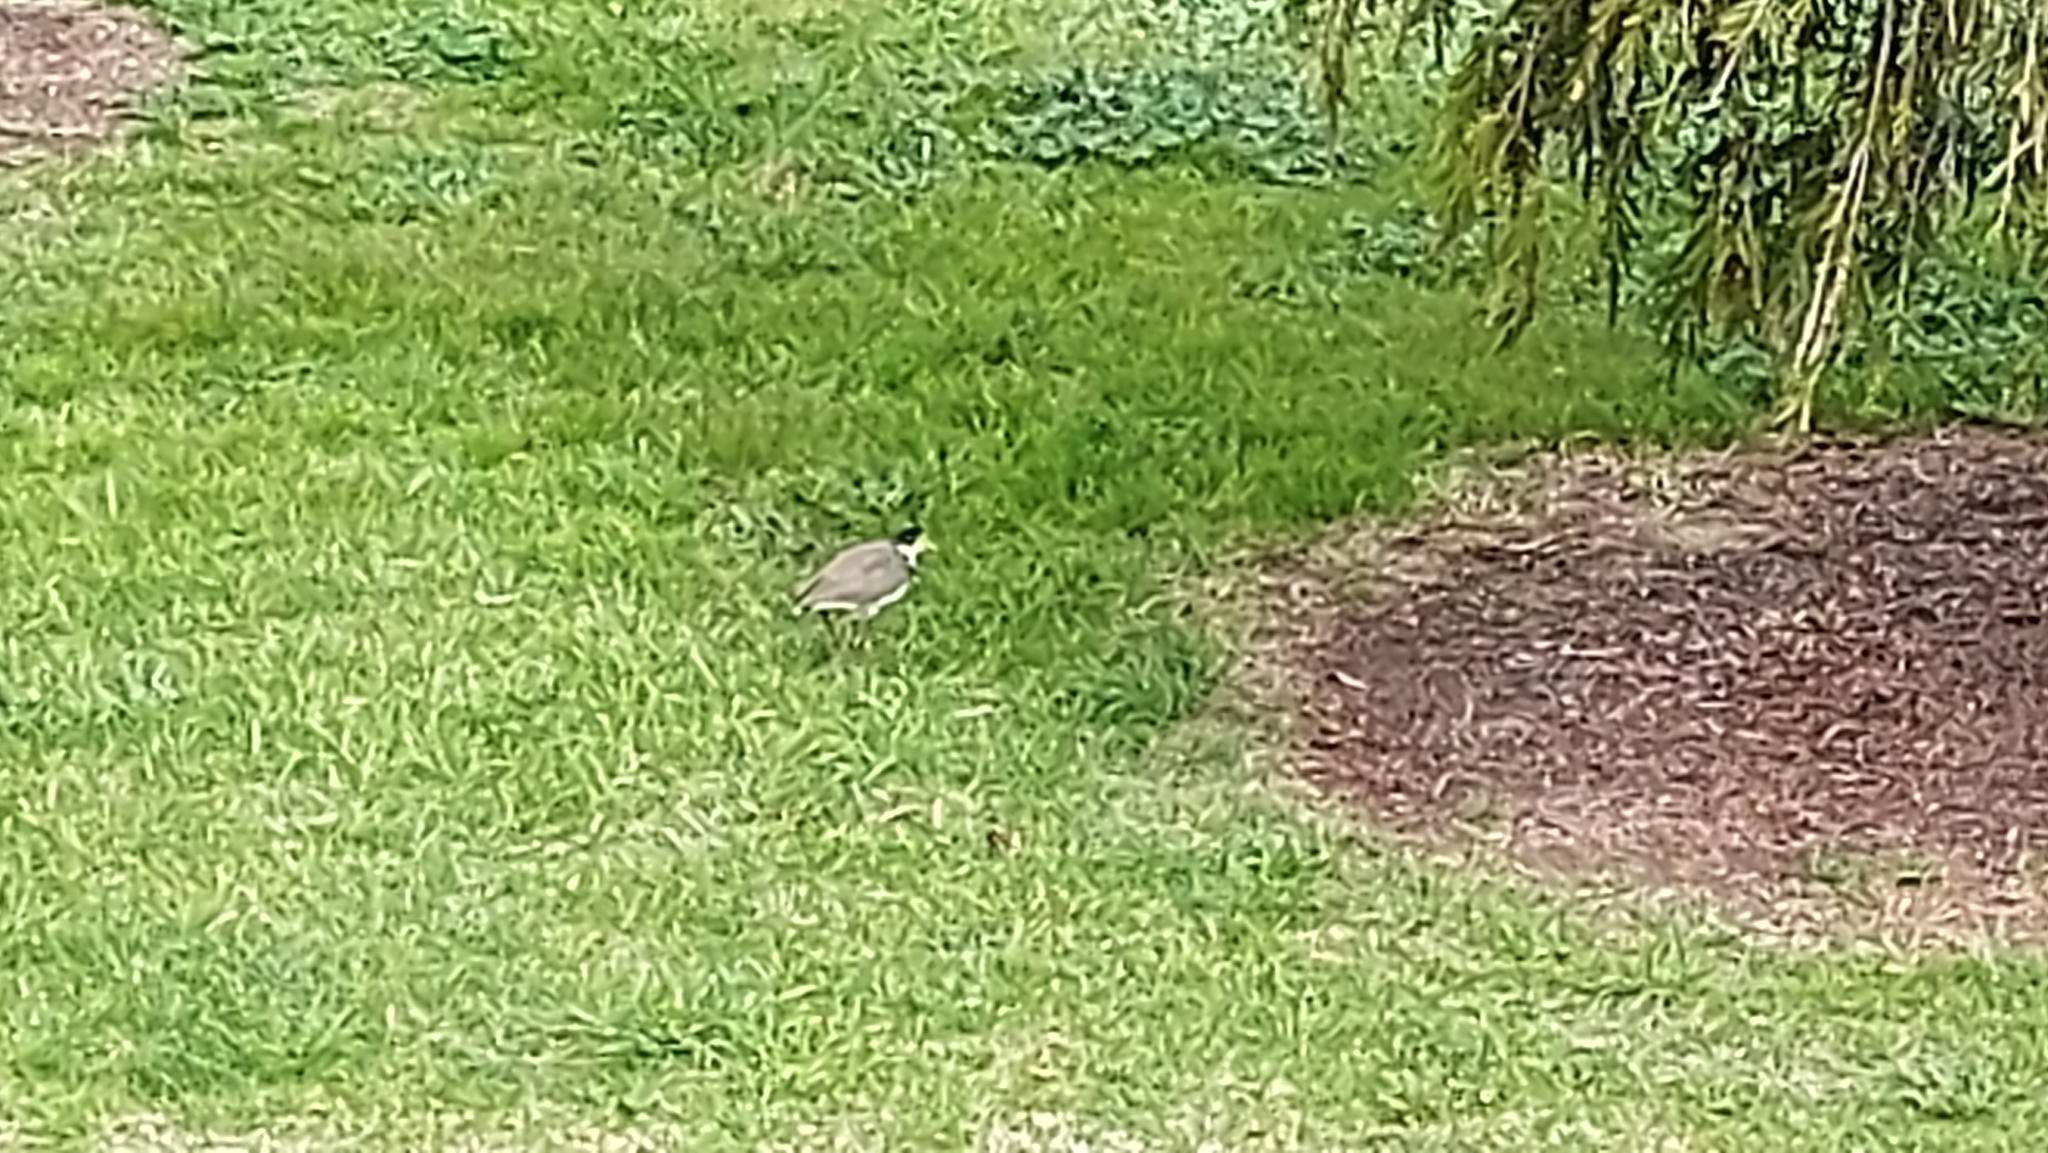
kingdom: Animalia
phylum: Chordata
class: Aves
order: Charadriiformes
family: Charadriidae
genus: Vanellus
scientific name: Vanellus miles
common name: Masked lapwing
